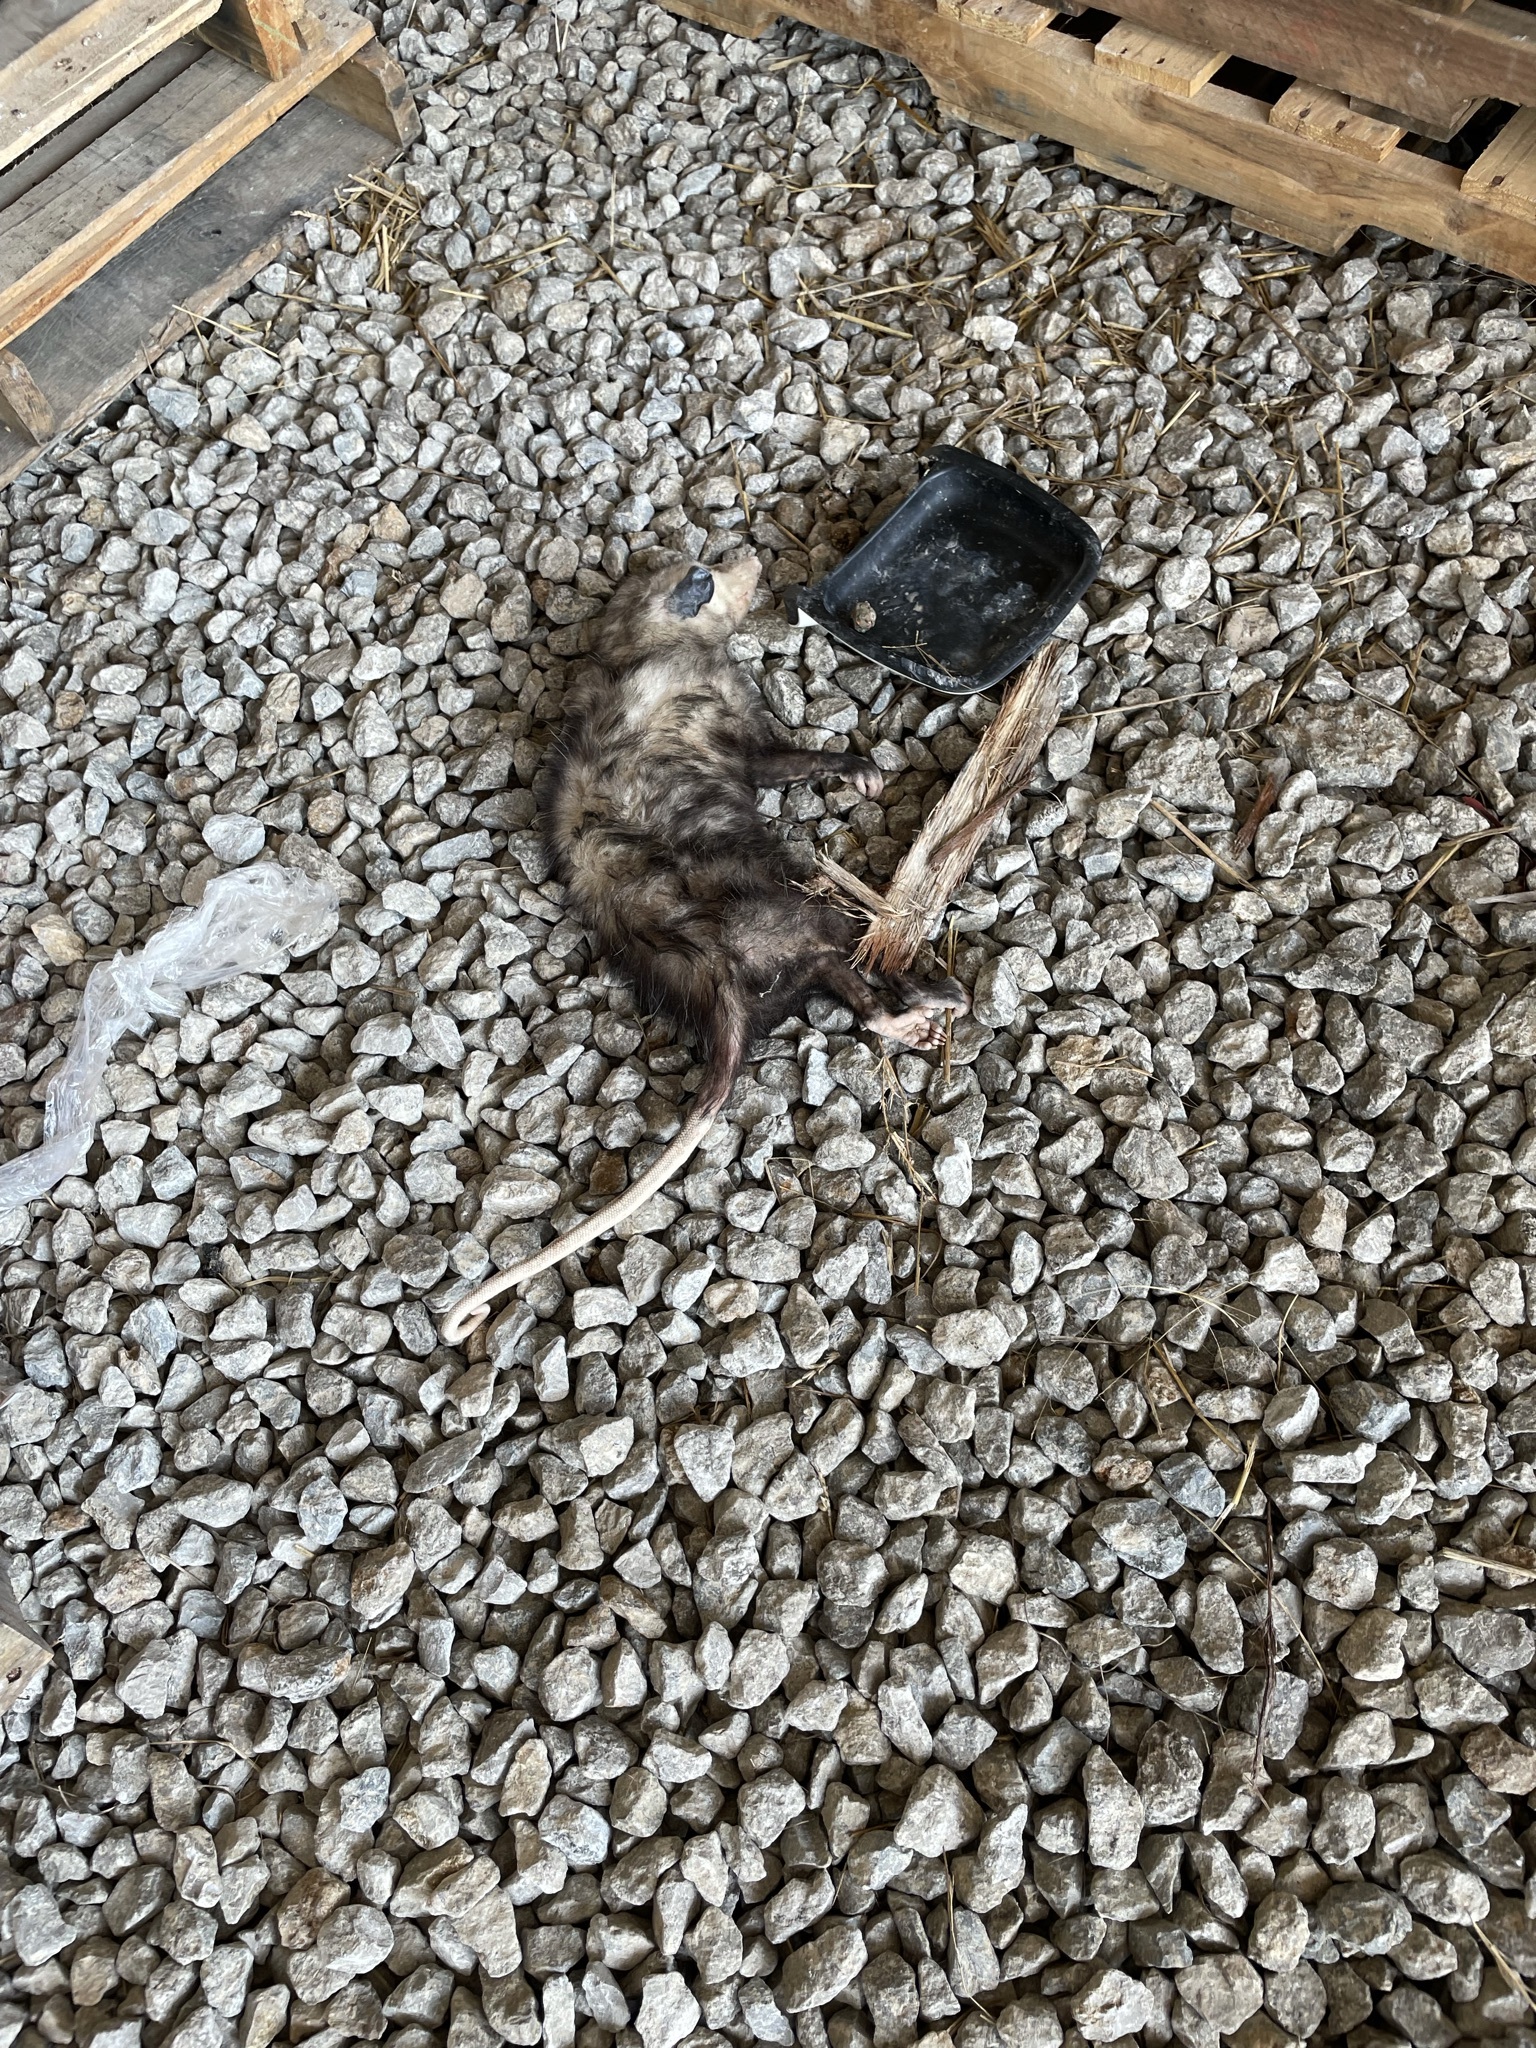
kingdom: Animalia
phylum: Chordata
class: Mammalia
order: Didelphimorphia
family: Didelphidae
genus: Didelphis
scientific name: Didelphis virginiana
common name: Virginia opossum
